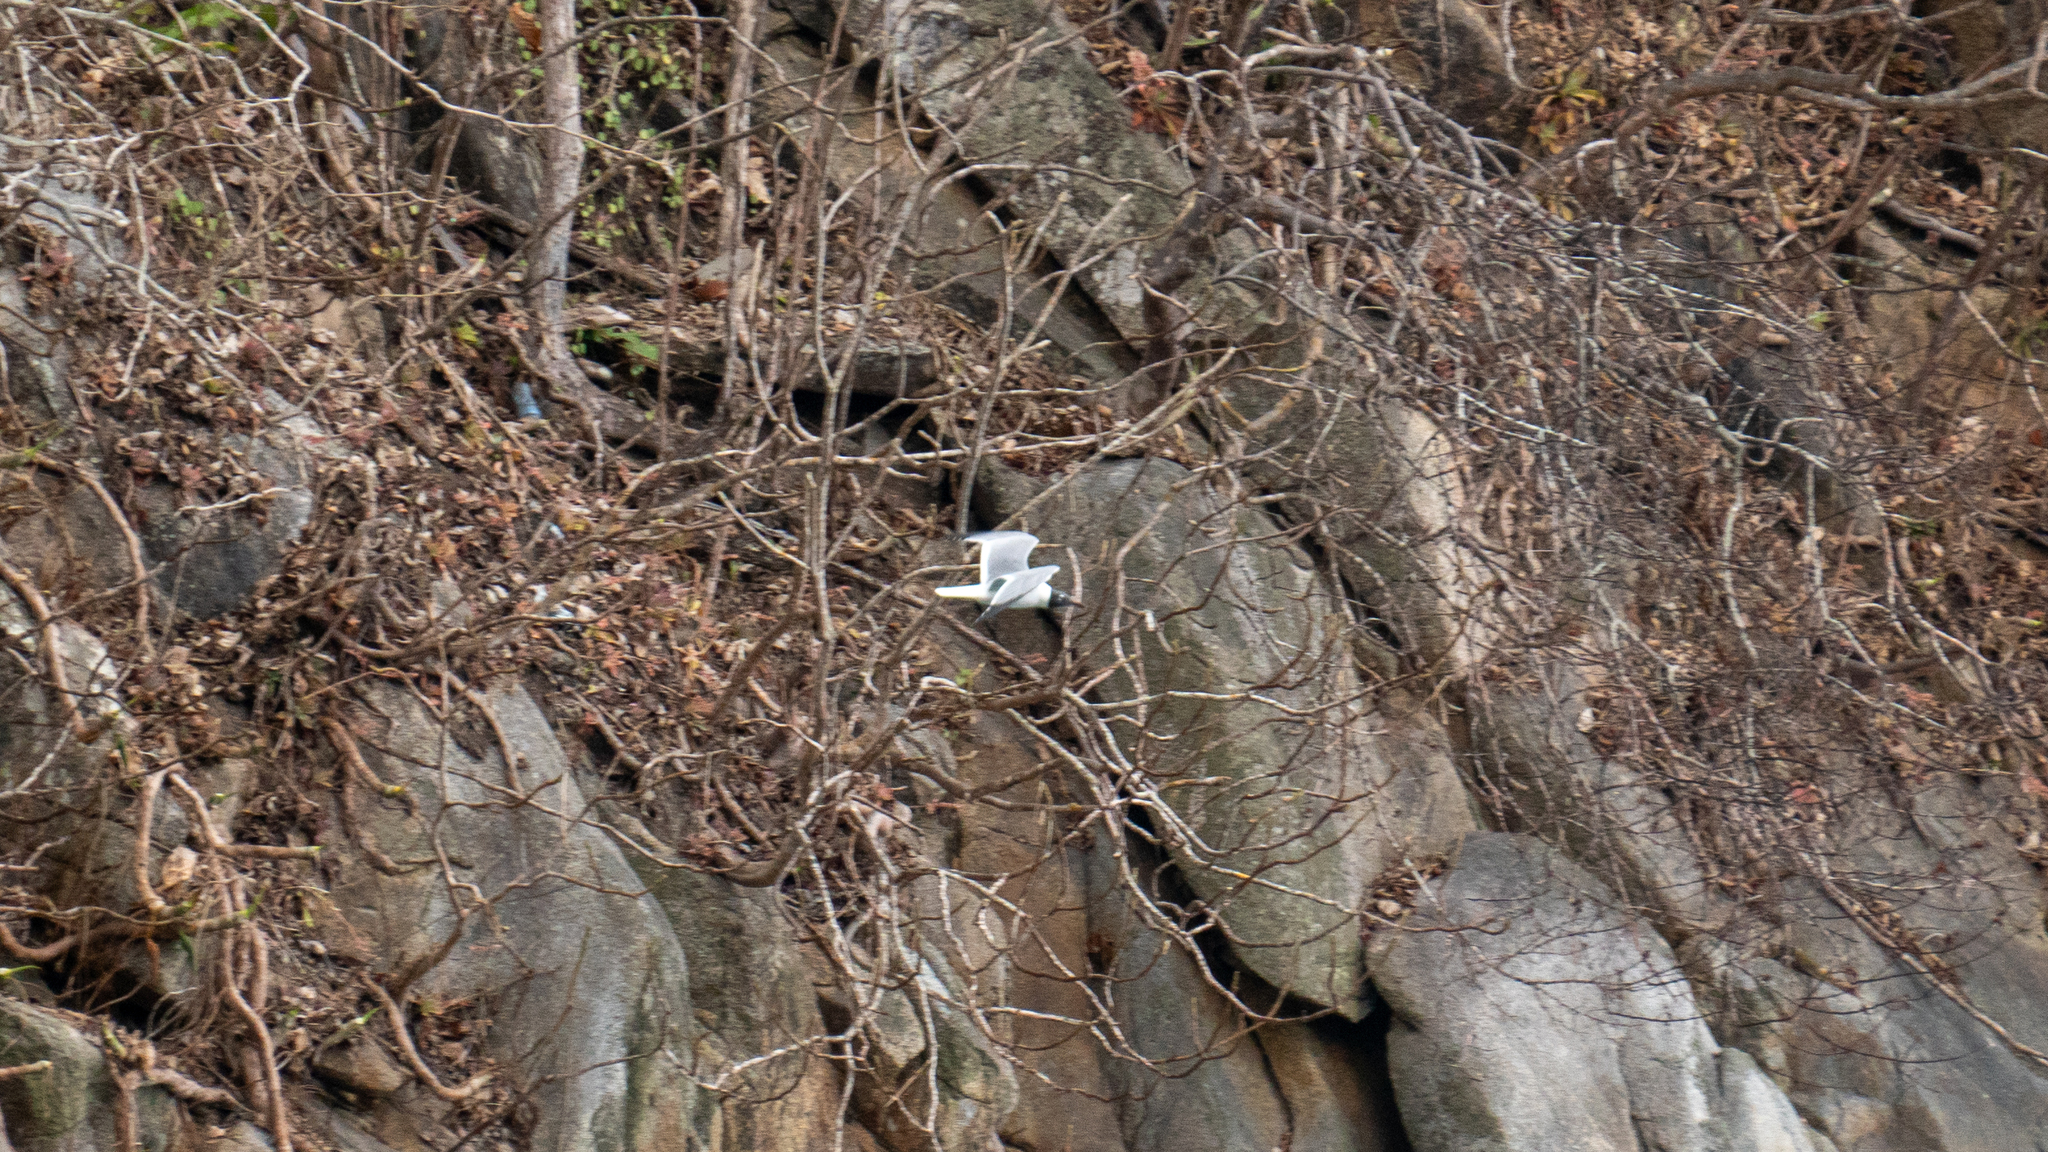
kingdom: Animalia
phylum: Chordata
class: Aves
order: Charadriiformes
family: Laridae
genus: Leucophaeus
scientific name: Leucophaeus atricilla
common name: Laughing gull
